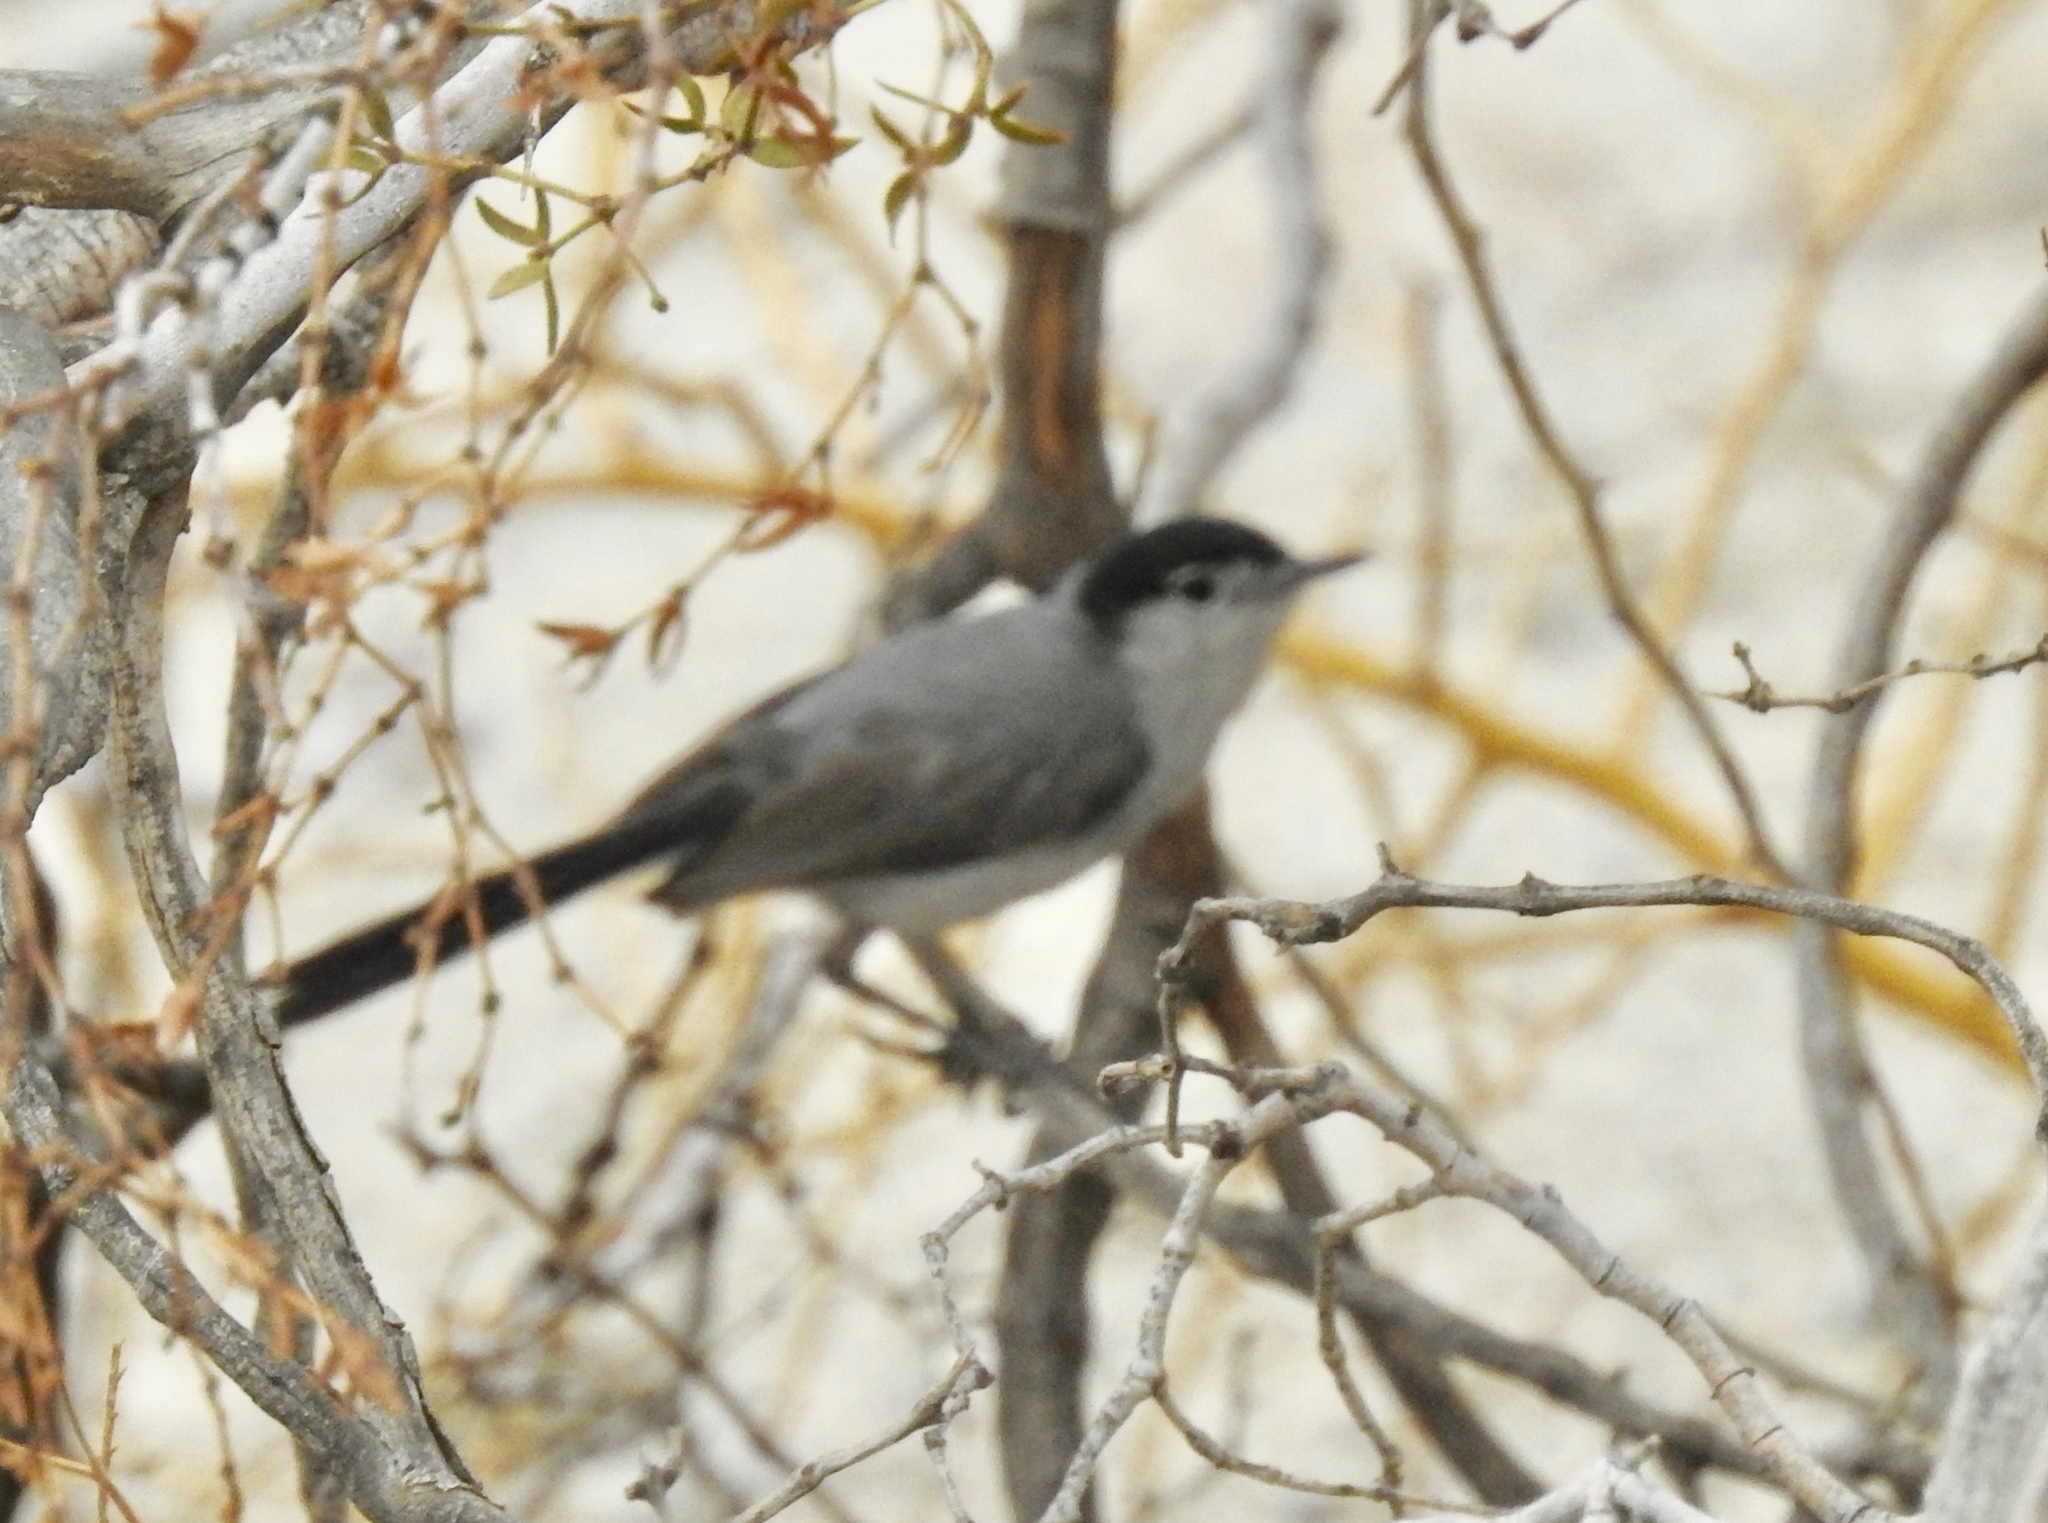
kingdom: Animalia
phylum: Chordata
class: Aves
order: Passeriformes
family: Polioptilidae
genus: Polioptila
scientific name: Polioptila melanura
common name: Black-tailed gnatcatcher
